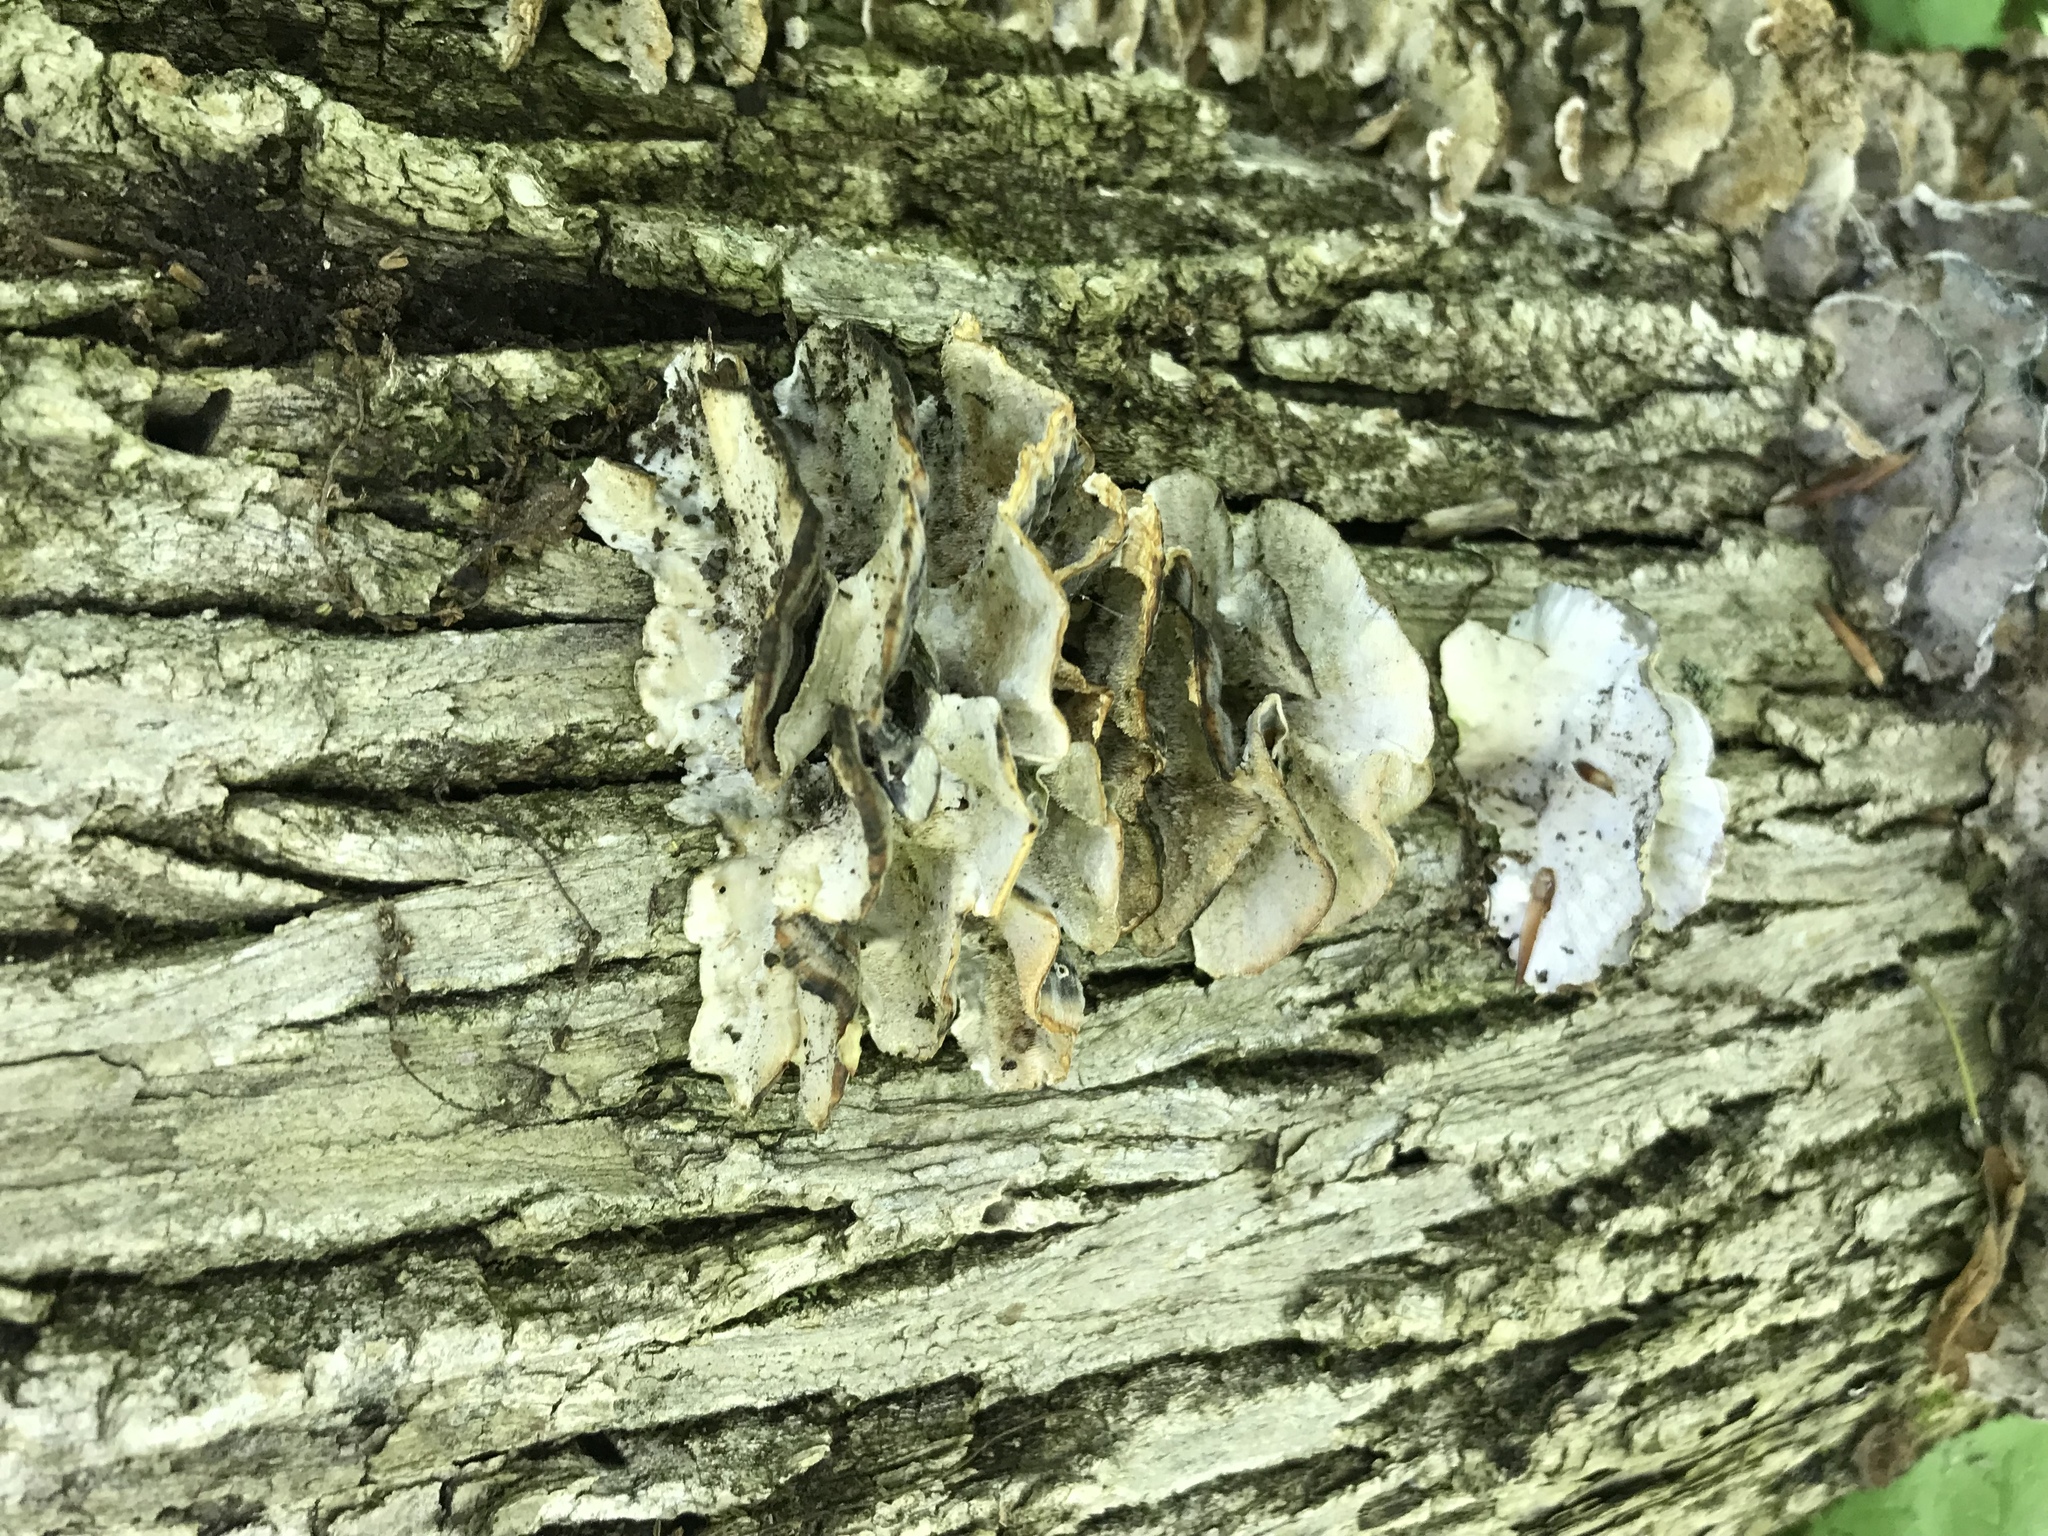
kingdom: Fungi
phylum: Basidiomycota
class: Agaricomycetes
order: Polyporales
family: Polyporaceae
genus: Trametes
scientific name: Trametes versicolor
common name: Turkeytail
